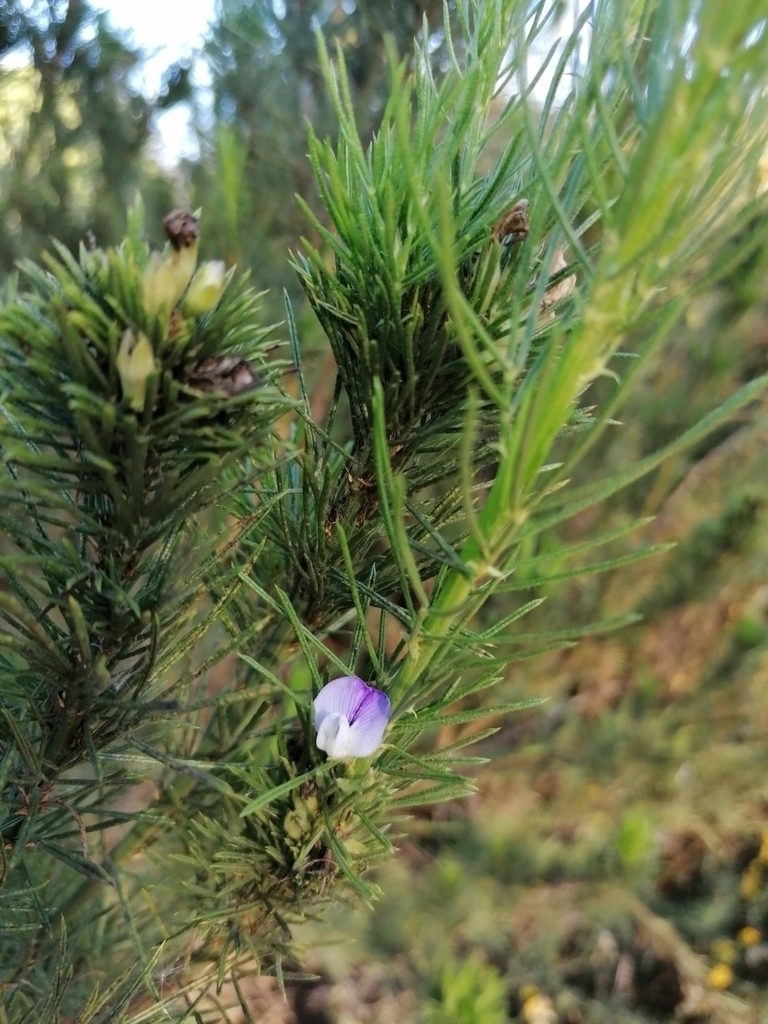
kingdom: Plantae
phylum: Tracheophyta
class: Magnoliopsida
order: Fabales
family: Fabaceae
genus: Psoralea
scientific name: Psoralea pinnata
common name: African scurfpea
